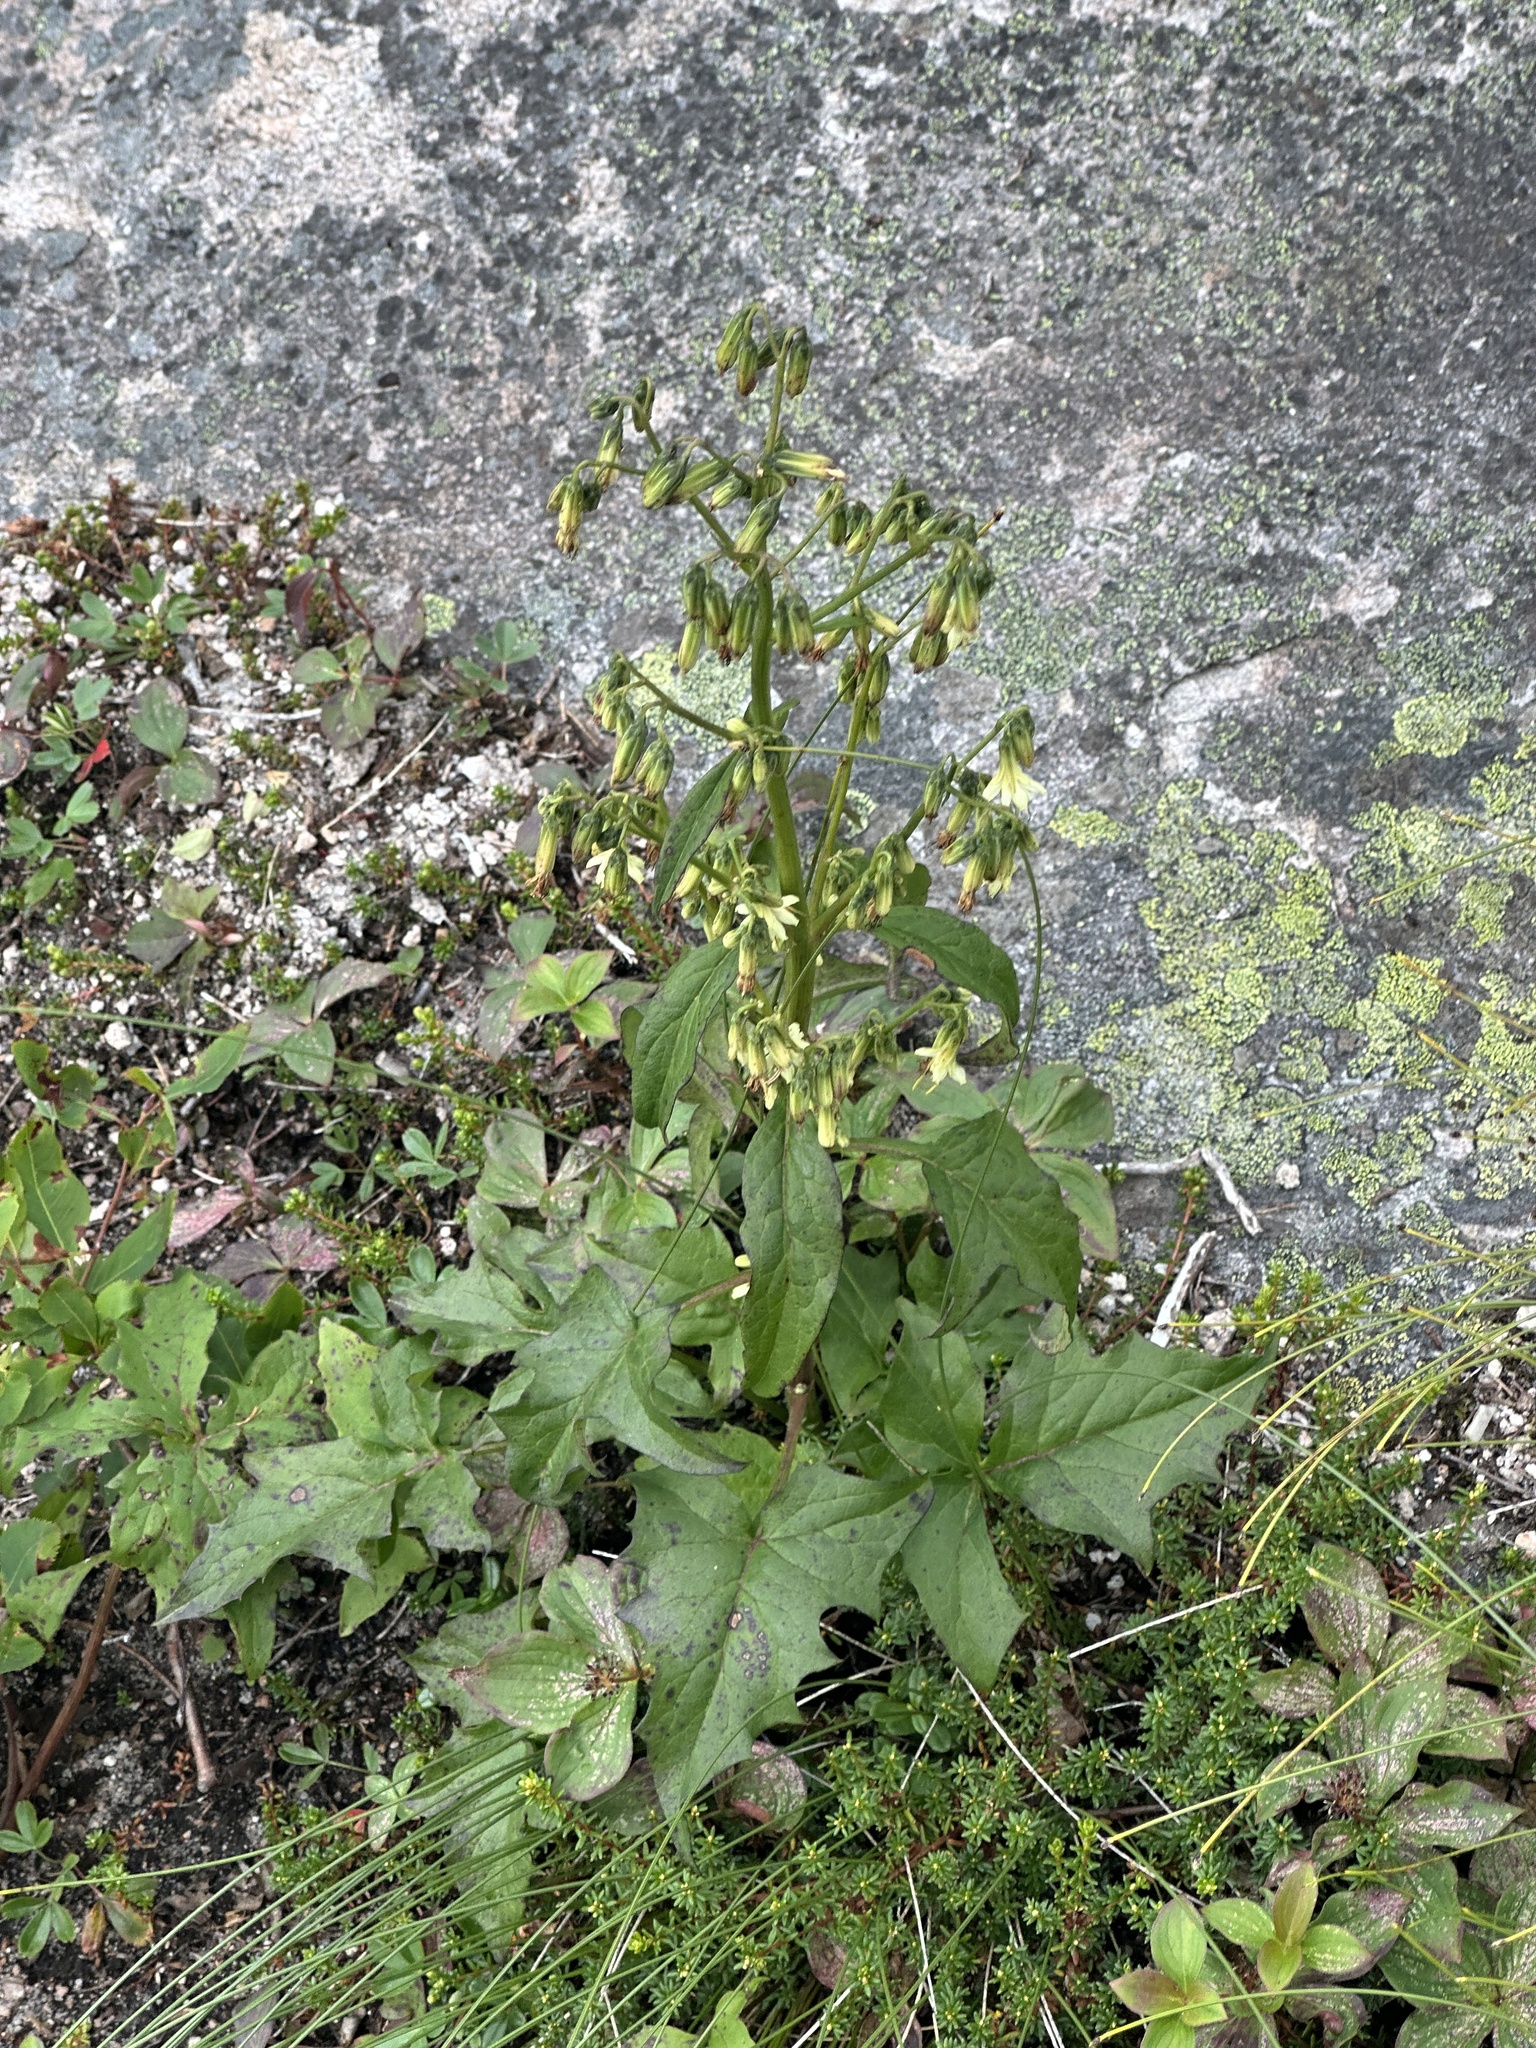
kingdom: Plantae
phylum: Tracheophyta
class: Magnoliopsida
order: Asterales
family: Asteraceae
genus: Nabalus
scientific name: Nabalus trifoliolatus
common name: Gall-of-the-earth
